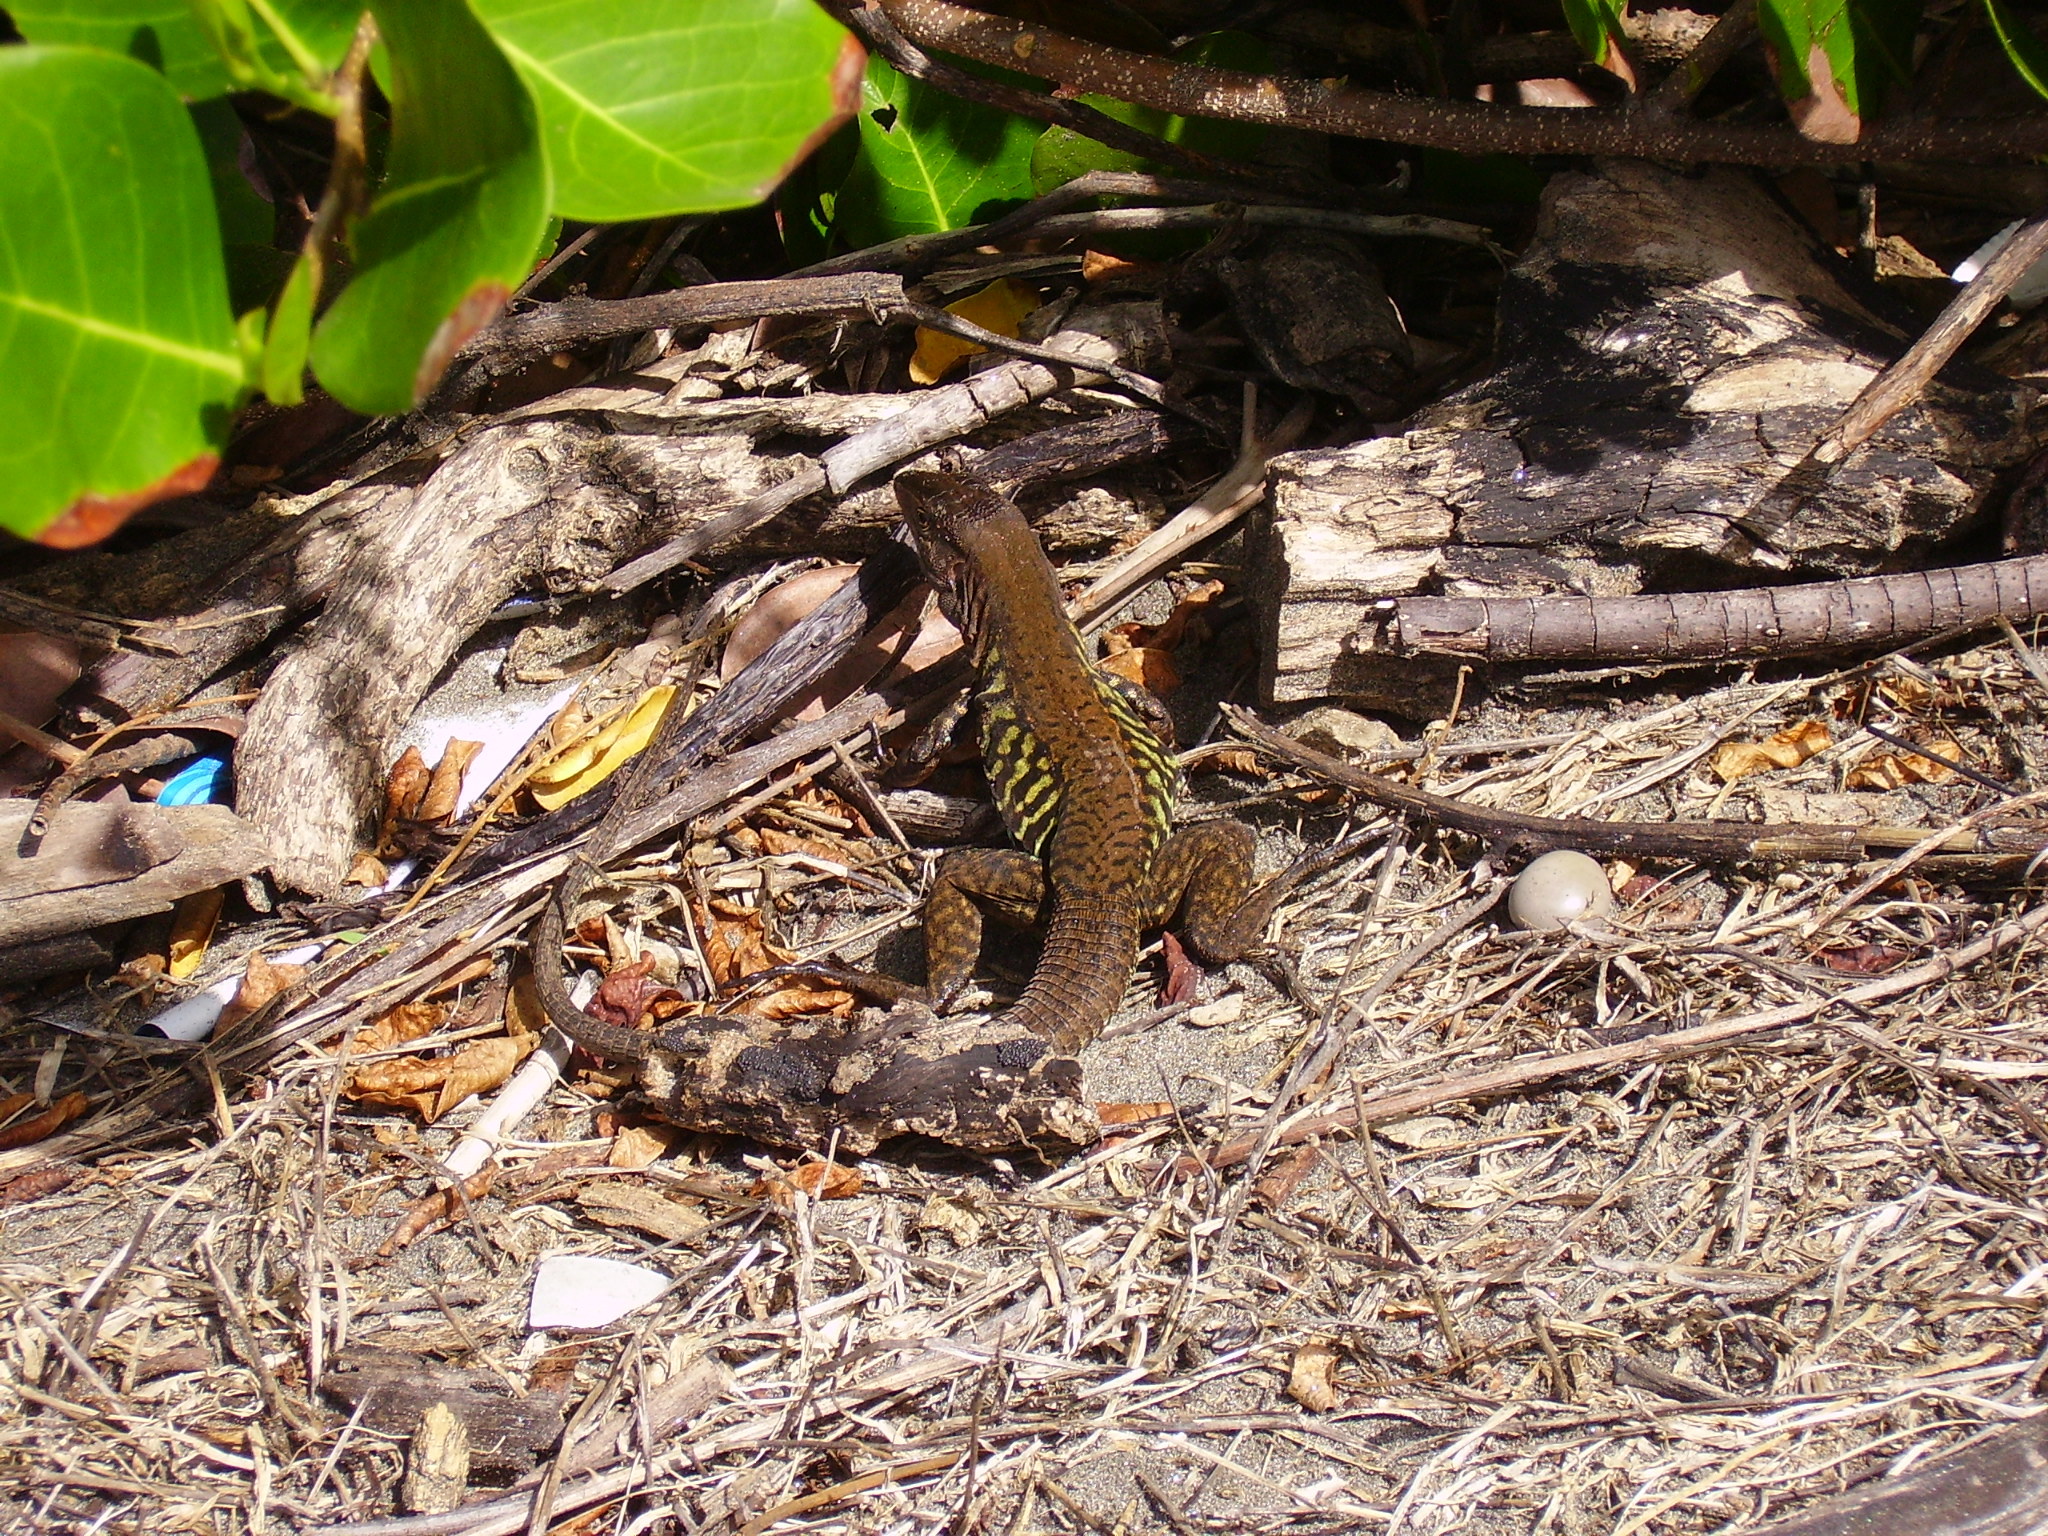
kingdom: Animalia
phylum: Chordata
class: Squamata
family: Teiidae
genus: Holcosus
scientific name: Holcosus undulatus
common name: Rainbow ameiva
